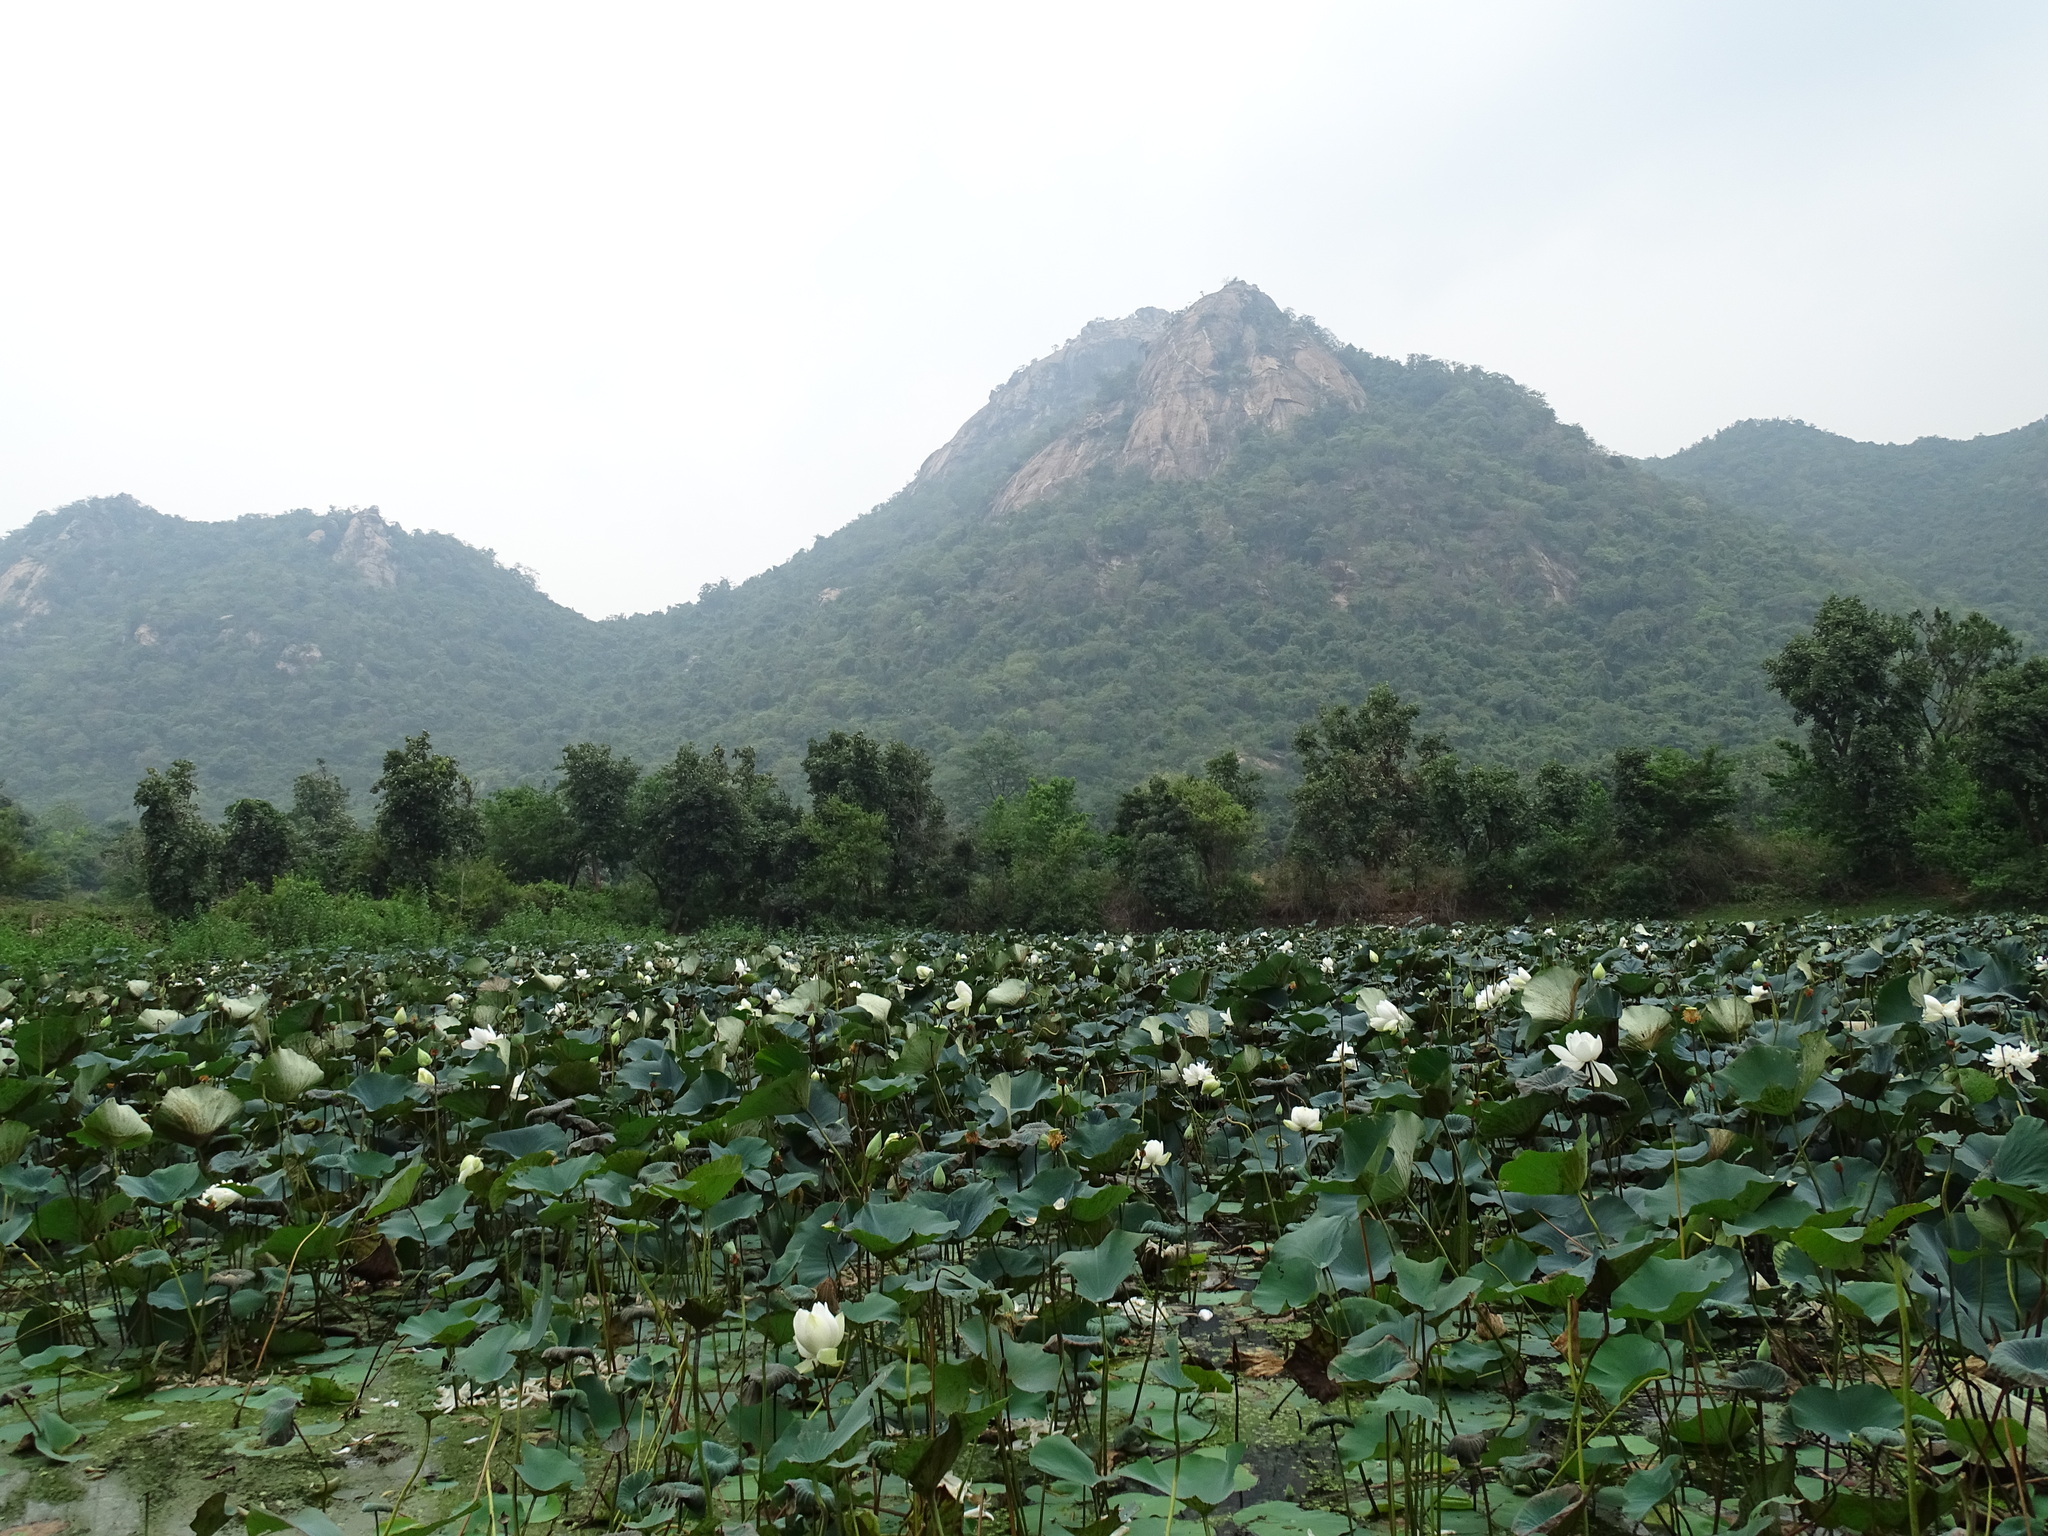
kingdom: Plantae
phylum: Tracheophyta
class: Magnoliopsida
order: Proteales
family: Nelumbonaceae
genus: Nelumbo
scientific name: Nelumbo nucifera
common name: Sacred lotus
